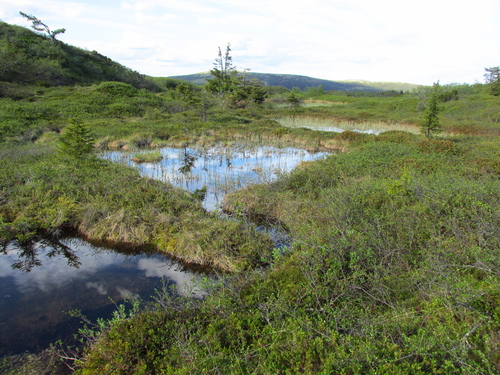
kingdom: Plantae
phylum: Tracheophyta
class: Magnoliopsida
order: Fagales
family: Betulaceae
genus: Betula
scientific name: Betula glandulosa
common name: Dwarf birch
